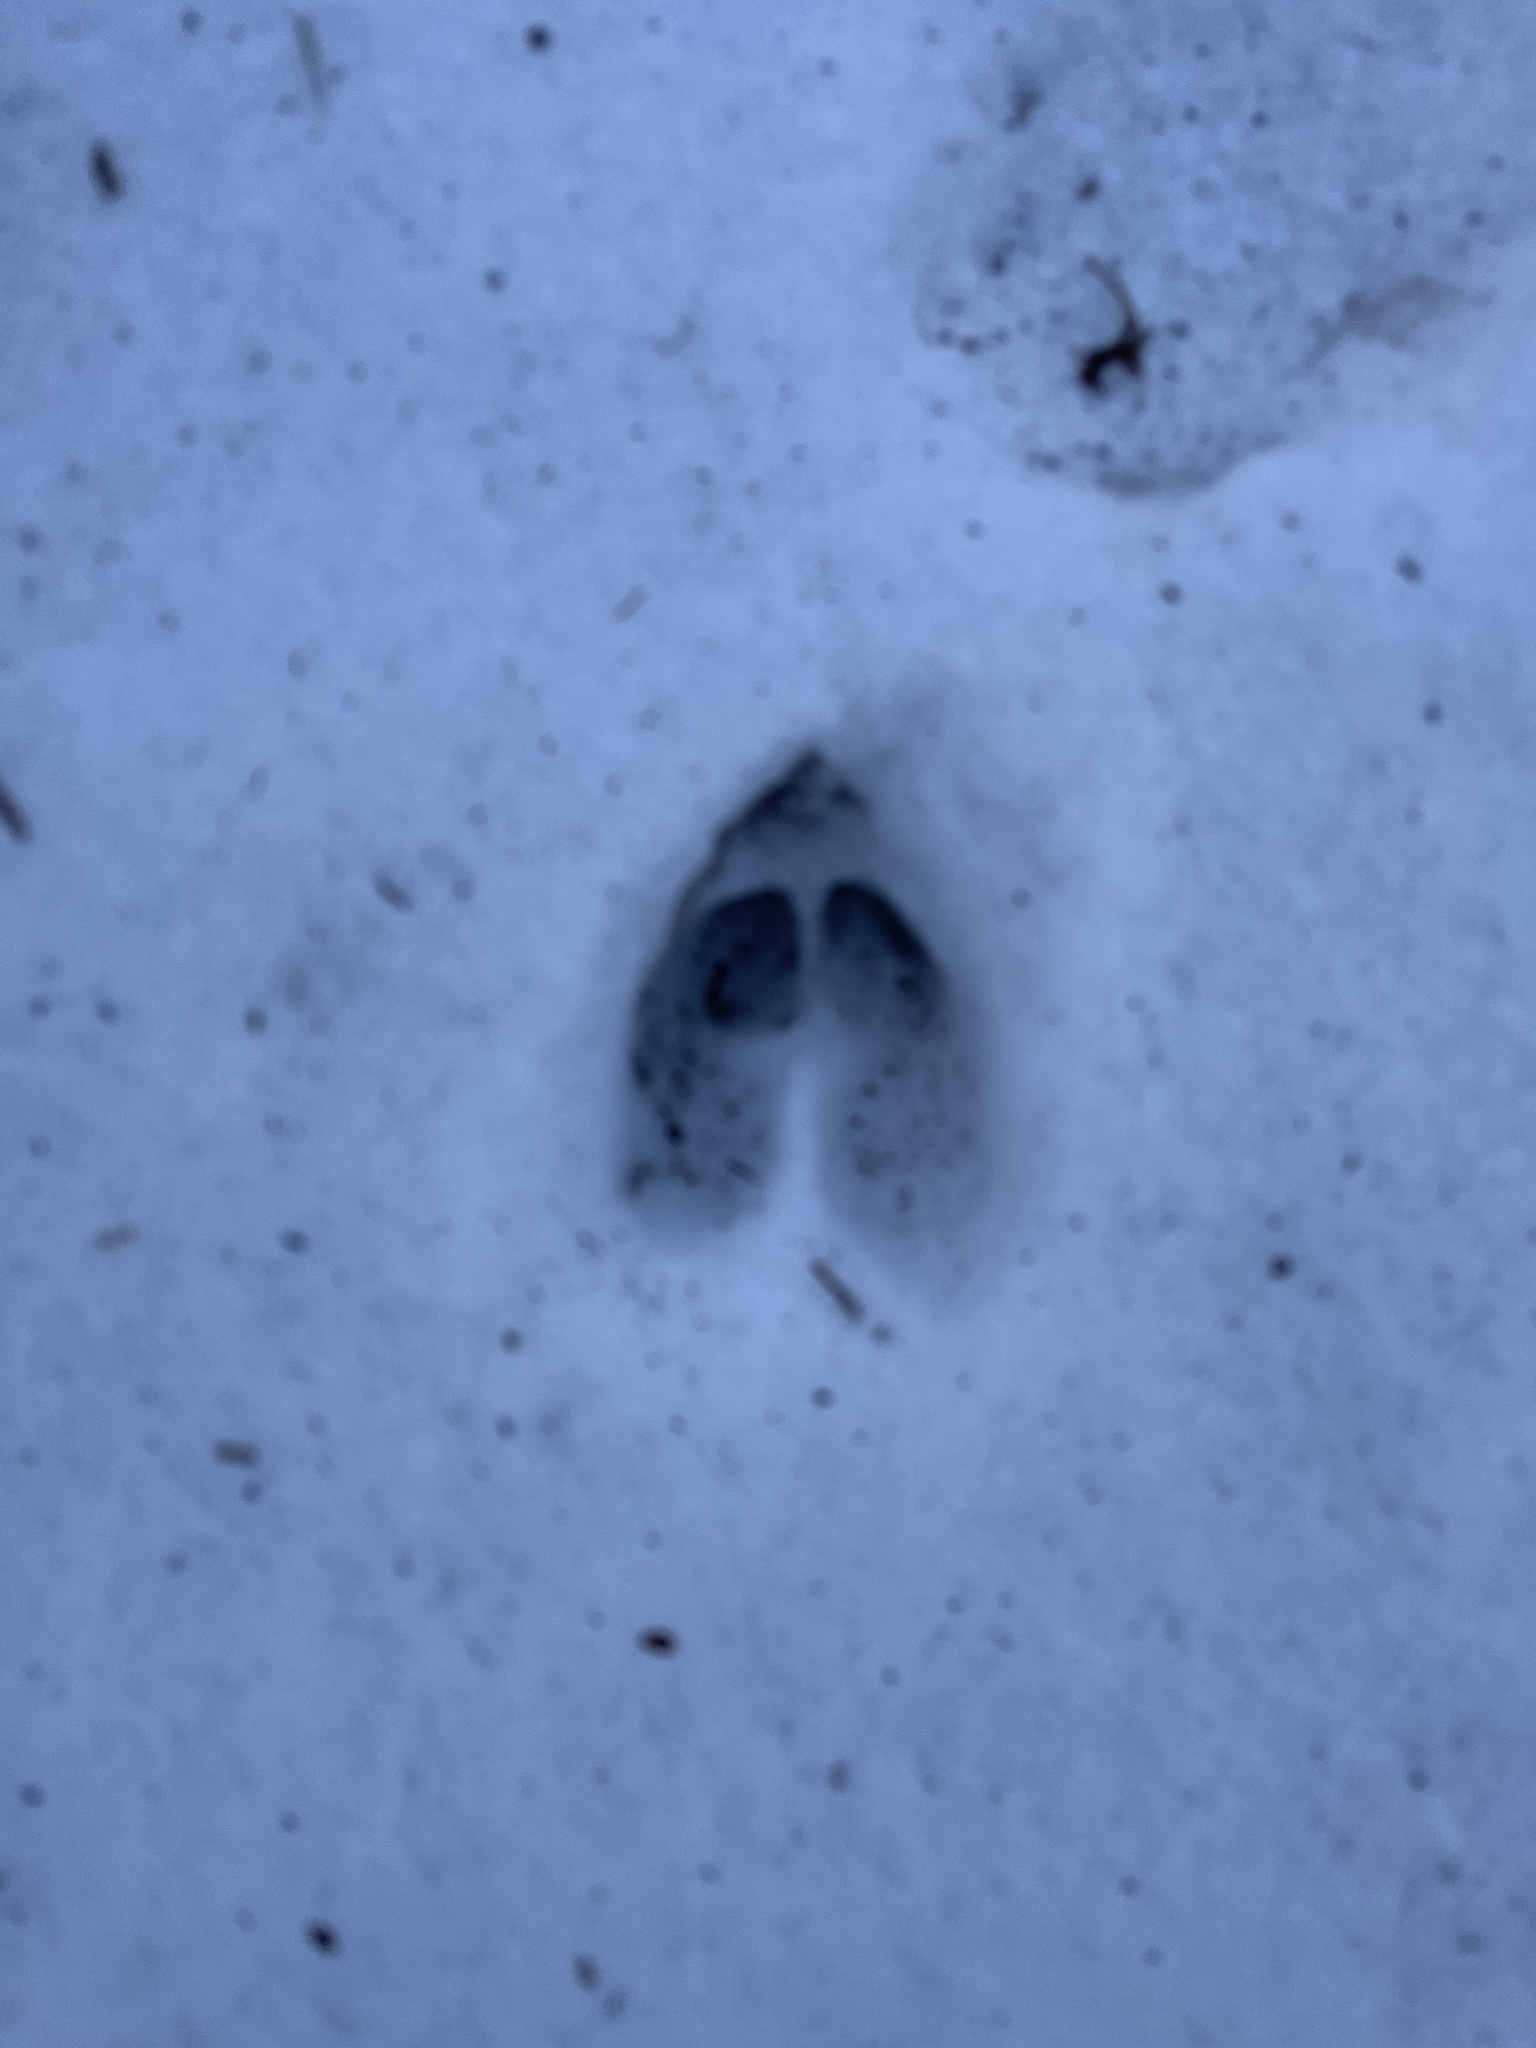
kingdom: Animalia
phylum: Chordata
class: Mammalia
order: Artiodactyla
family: Cervidae
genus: Odocoileus
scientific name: Odocoileus virginianus
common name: White-tailed deer
